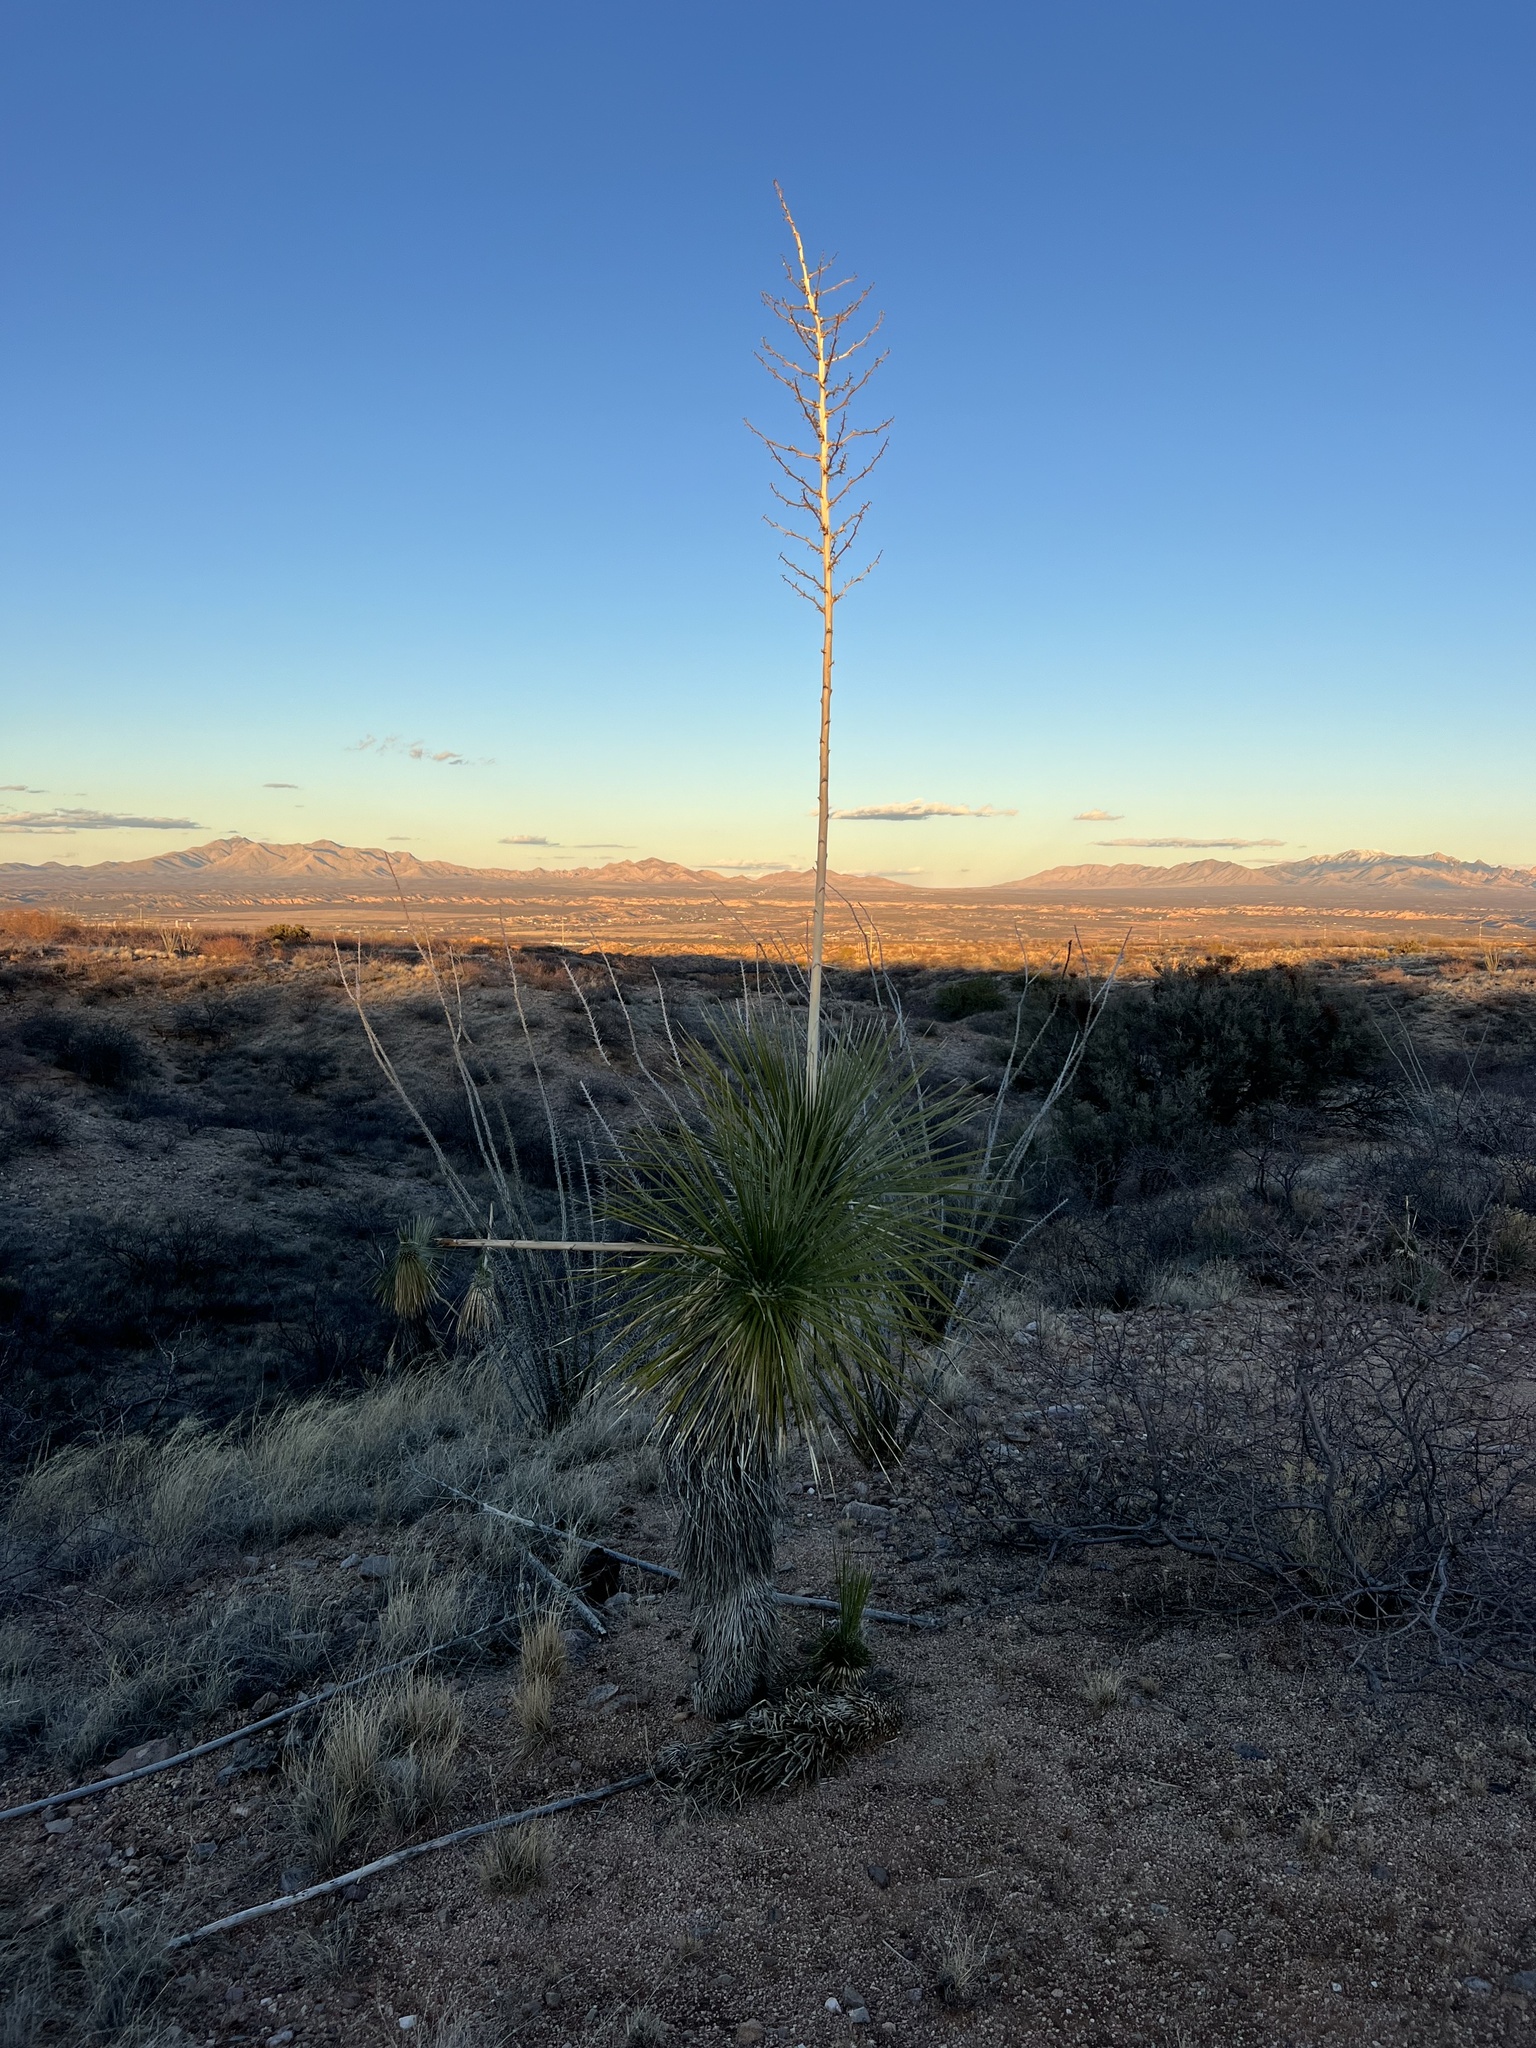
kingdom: Plantae
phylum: Tracheophyta
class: Liliopsida
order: Asparagales
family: Asparagaceae
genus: Yucca
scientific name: Yucca elata
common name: Palmella
